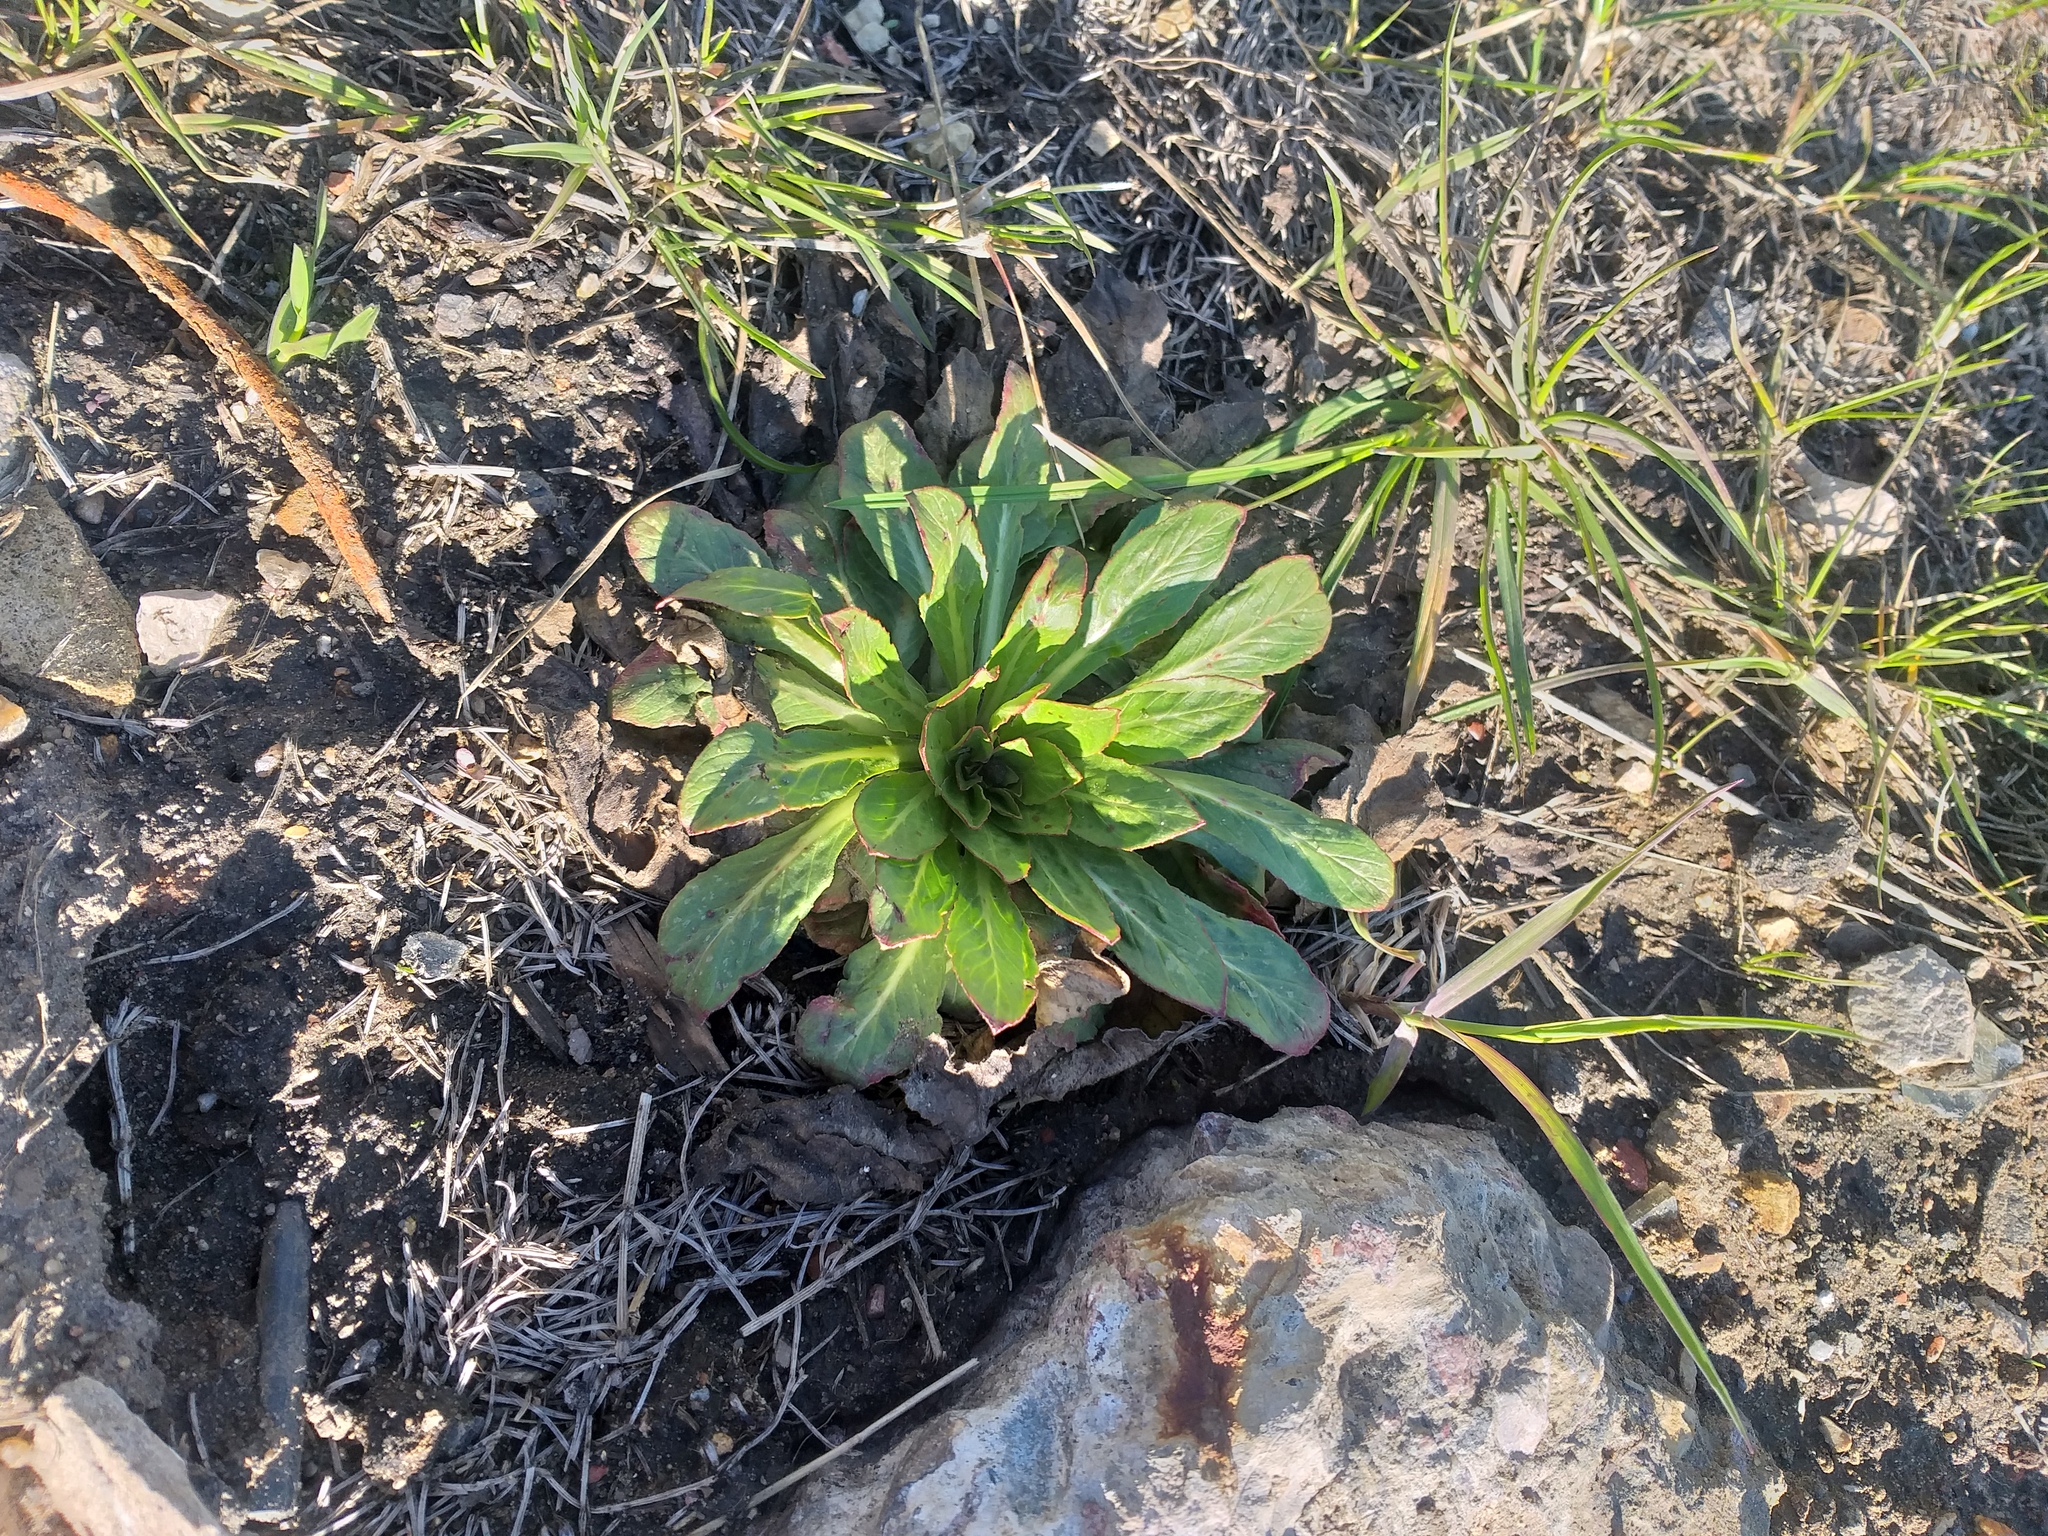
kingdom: Plantae
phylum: Tracheophyta
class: Magnoliopsida
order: Myrtales
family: Onagraceae
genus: Oenothera
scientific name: Oenothera
